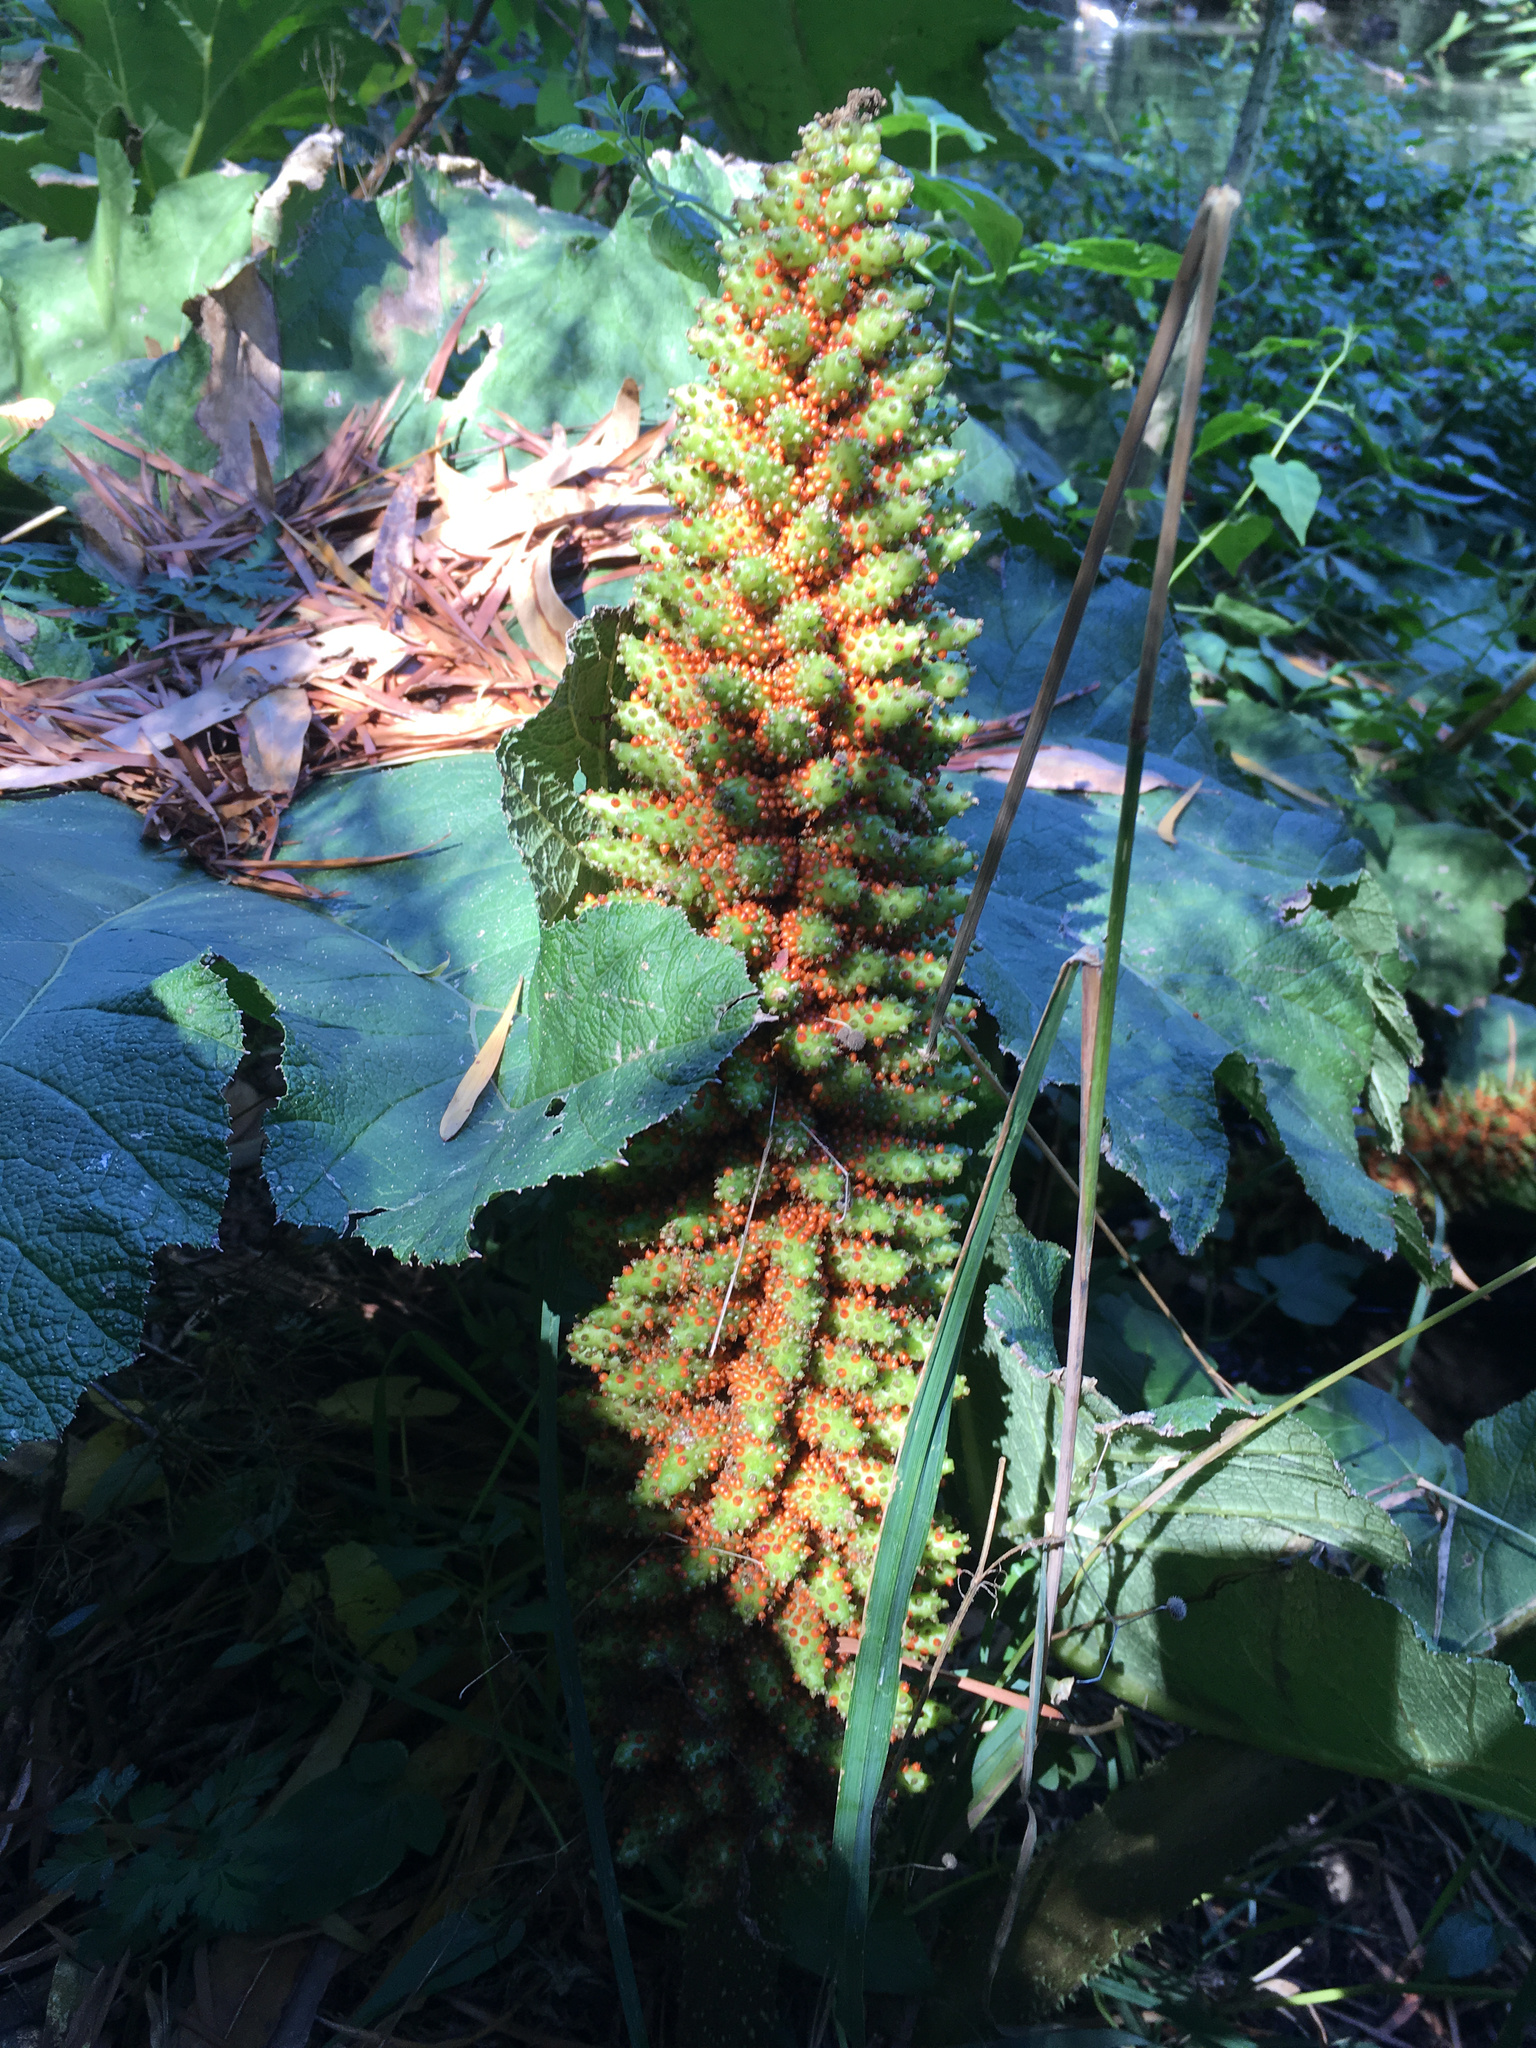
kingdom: Plantae
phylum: Tracheophyta
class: Magnoliopsida
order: Gunnerales
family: Gunneraceae
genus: Gunnera
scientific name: Gunnera tinctoria
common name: Giant-rhubarb
